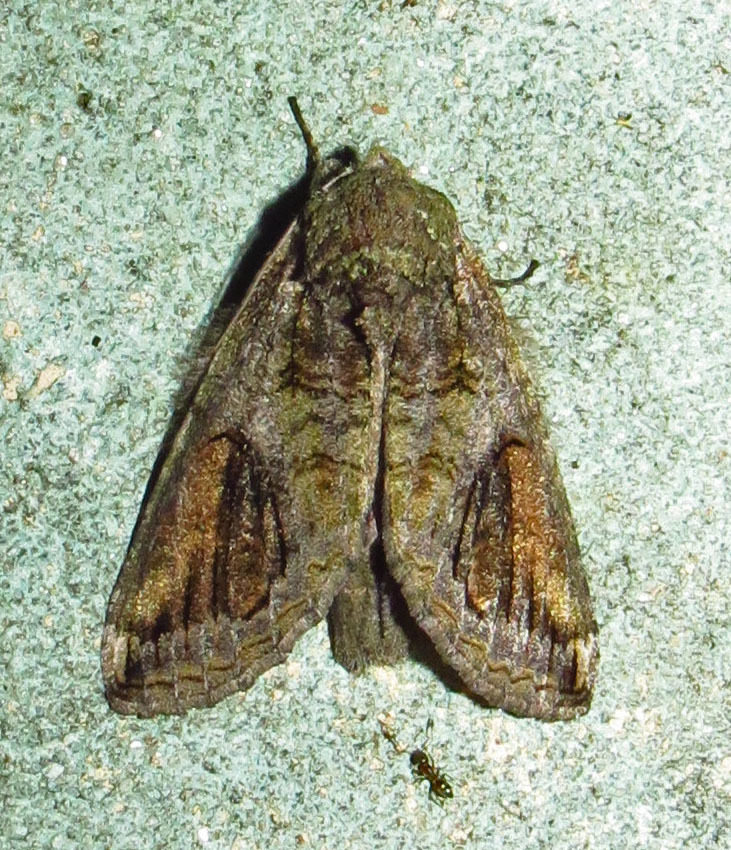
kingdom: Animalia
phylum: Arthropoda
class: Insecta
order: Lepidoptera
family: Notodontidae
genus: Heterocampa
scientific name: Heterocampa obliqua
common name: Oblique heterocampa
